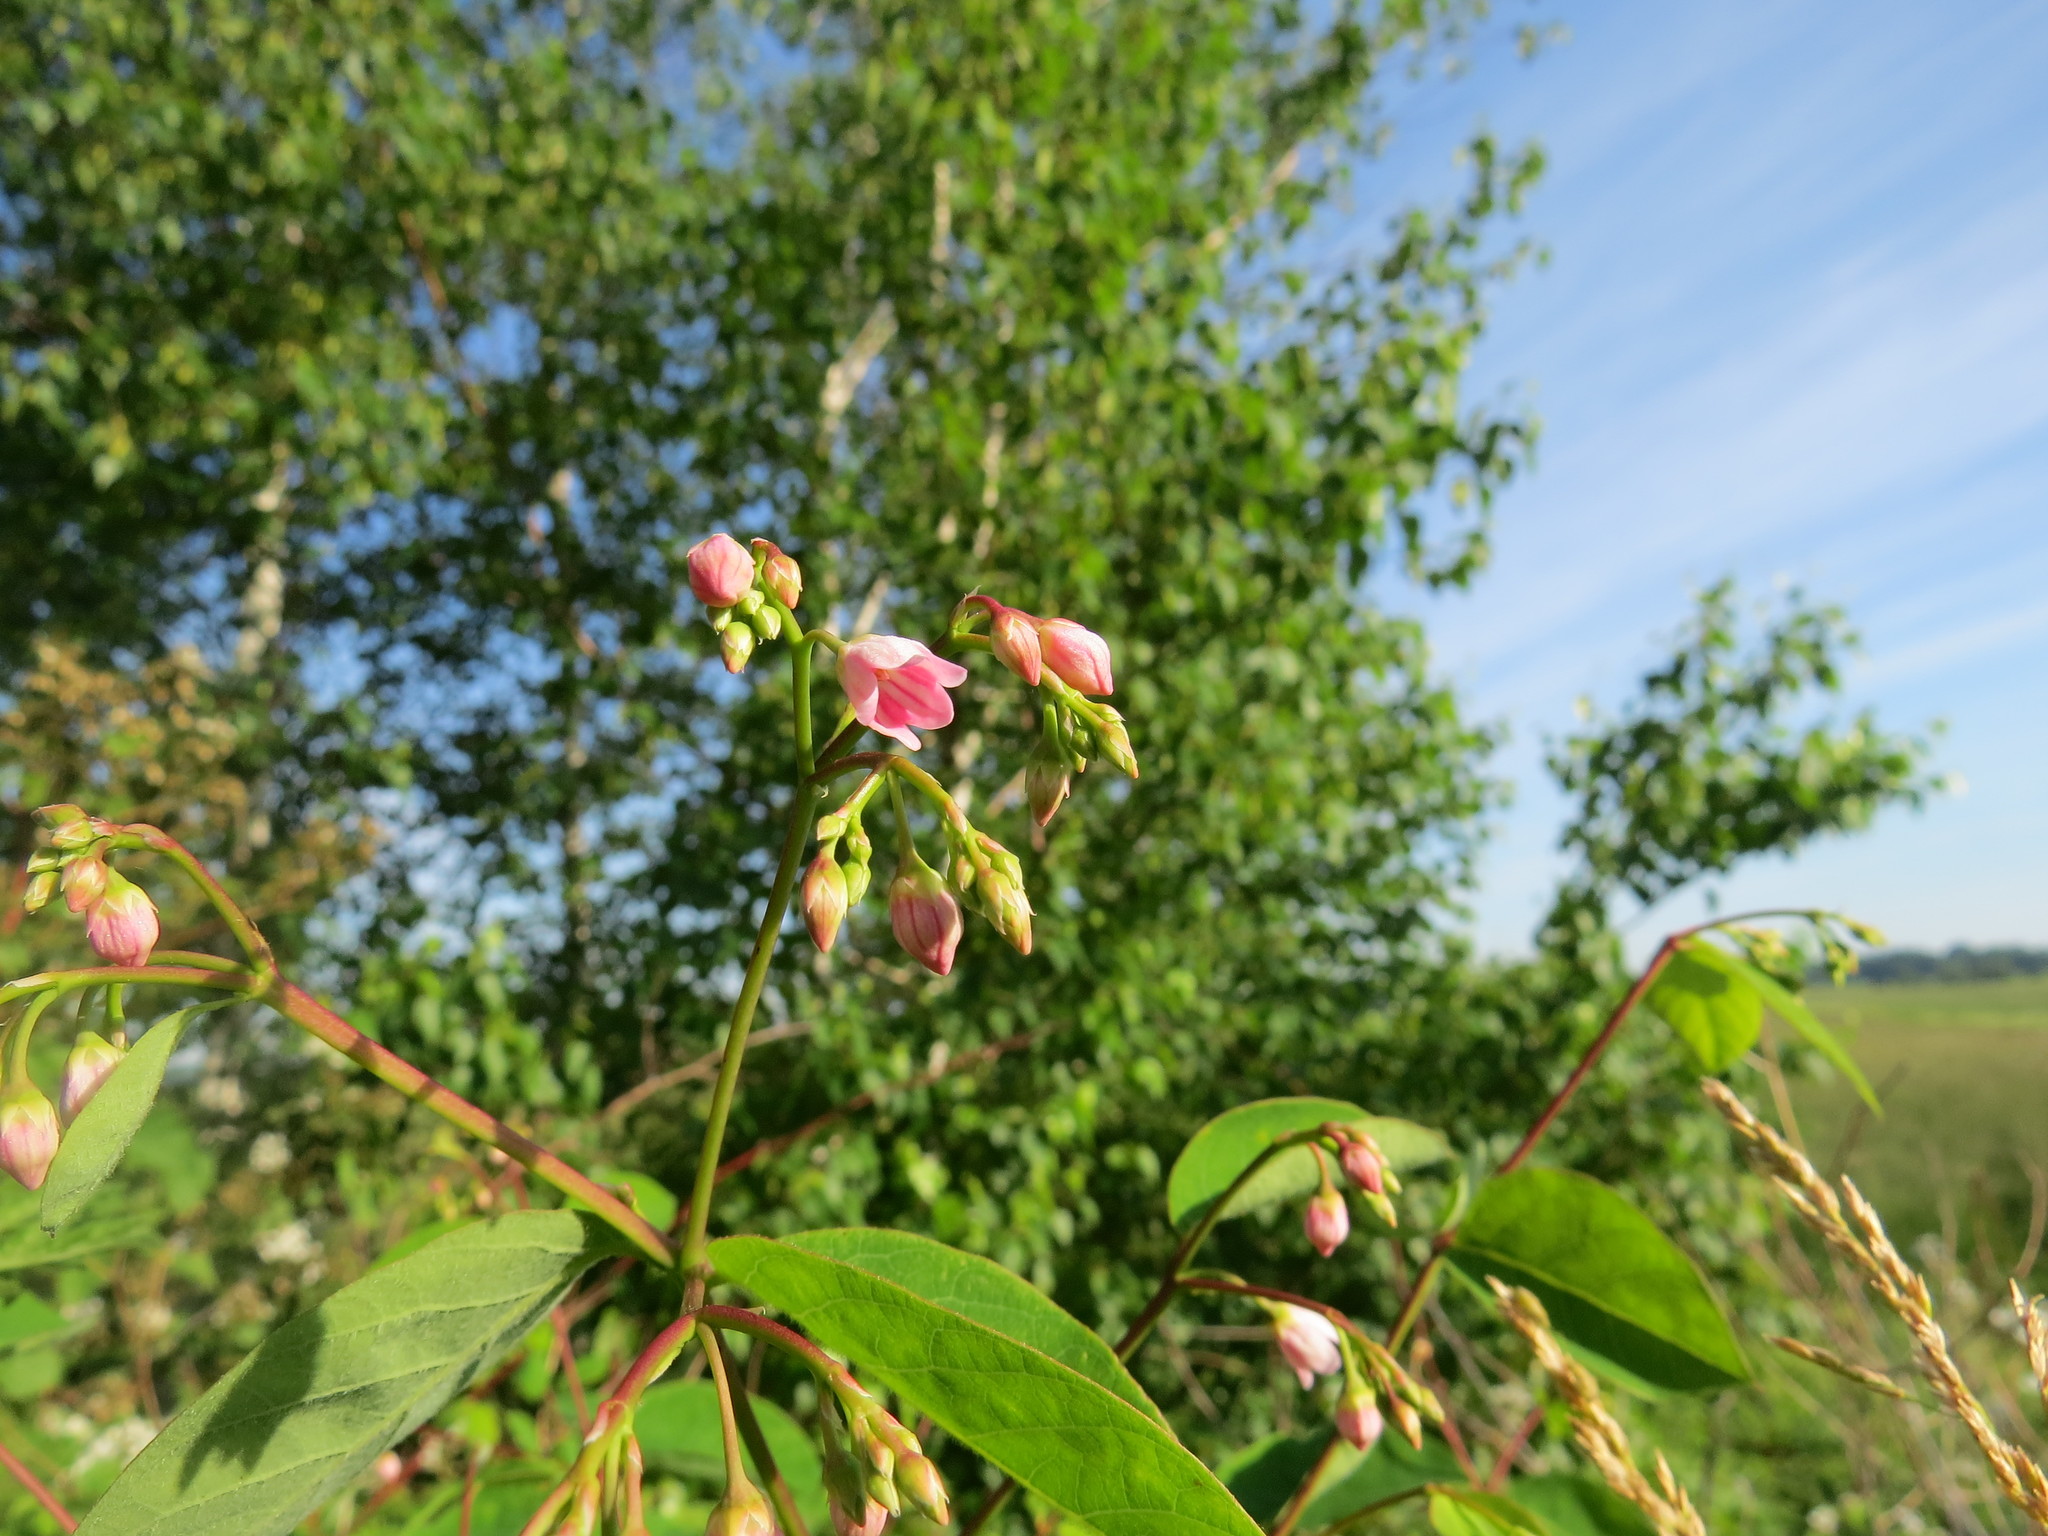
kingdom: Plantae
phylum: Tracheophyta
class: Magnoliopsida
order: Gentianales
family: Apocynaceae
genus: Apocynum
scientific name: Apocynum androsaemifolium
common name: Spreading dogbane
